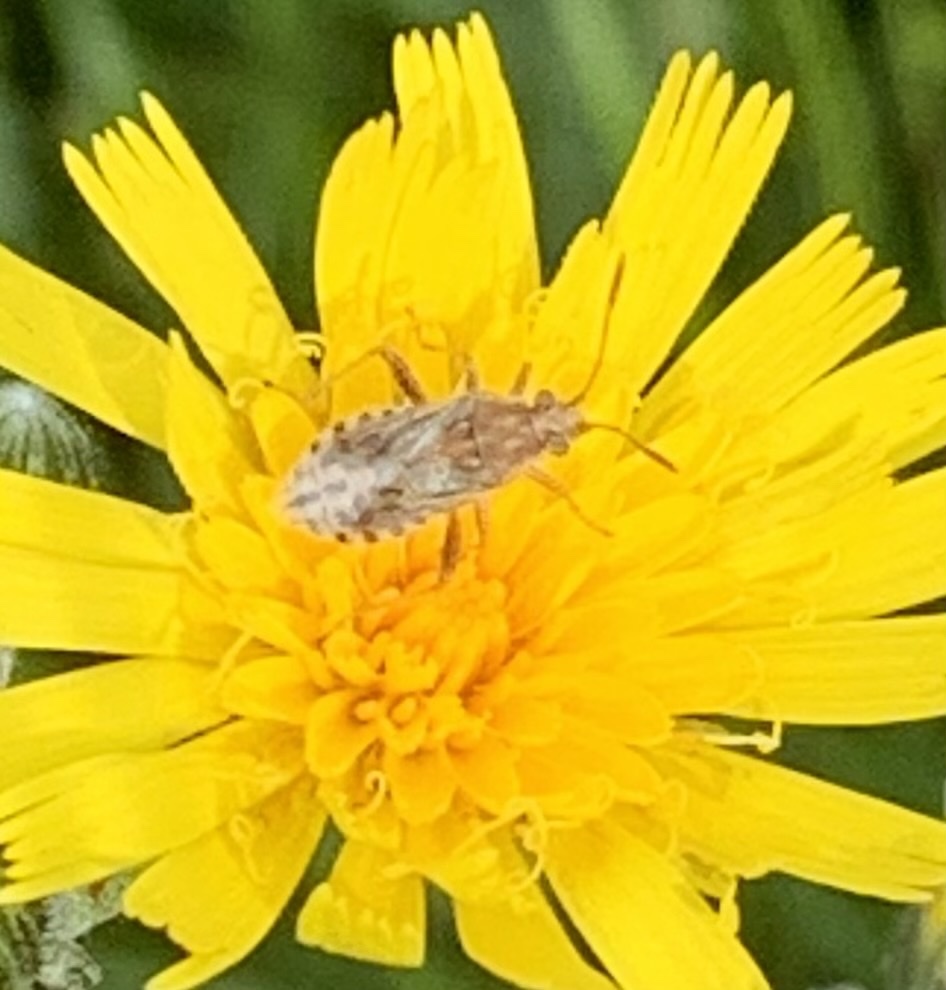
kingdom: Animalia
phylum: Arthropoda
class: Insecta
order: Hemiptera
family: Rhopalidae
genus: Stictopleurus
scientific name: Stictopleurus punctiventris
